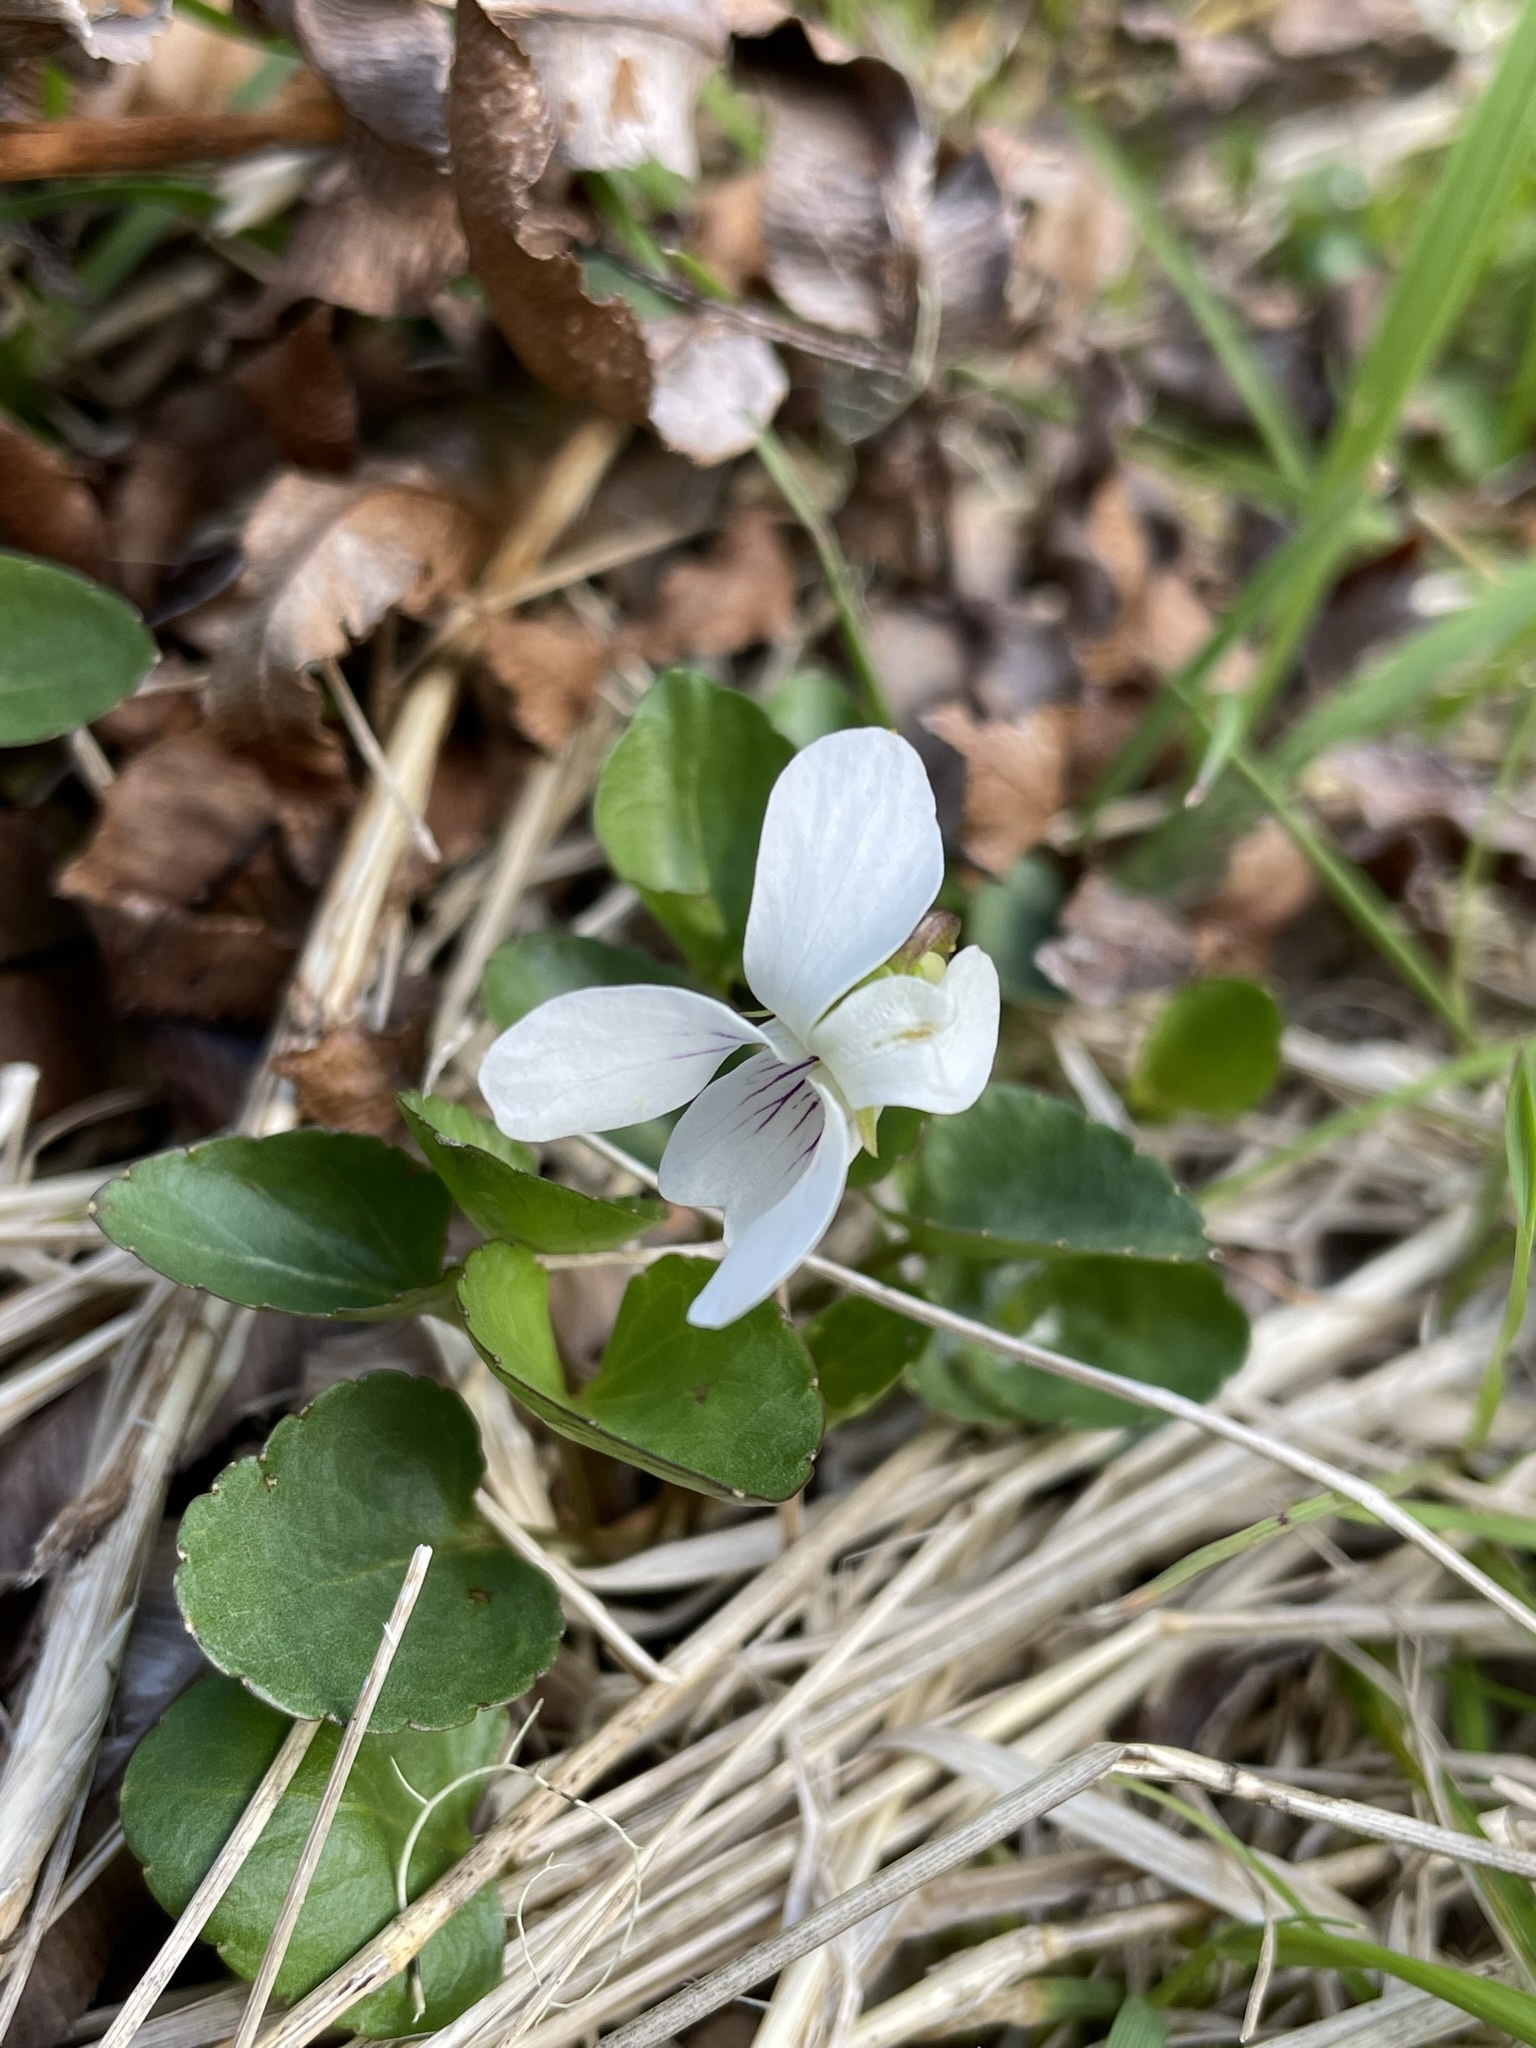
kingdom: Plantae
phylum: Tracheophyta
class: Magnoliopsida
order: Malpighiales
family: Violaceae
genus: Viola
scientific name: Viola cunninghamii
